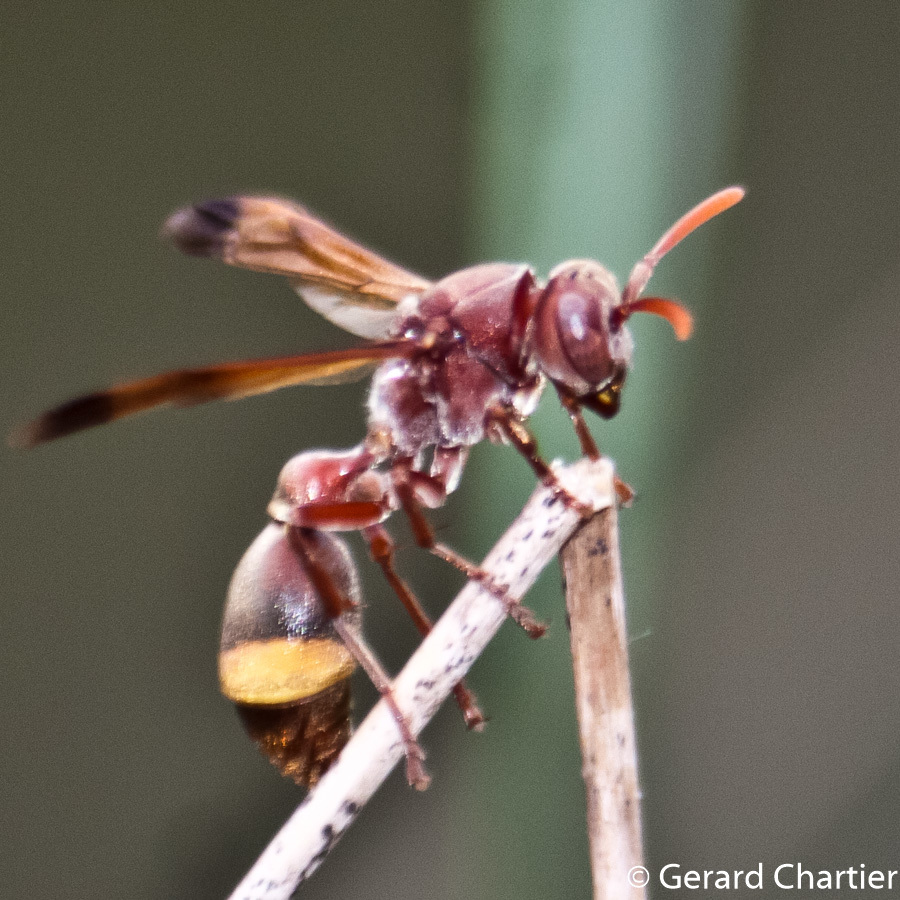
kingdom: Animalia
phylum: Arthropoda
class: Insecta
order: Hymenoptera
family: Vespidae
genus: Ropalidia
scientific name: Ropalidia marginata
